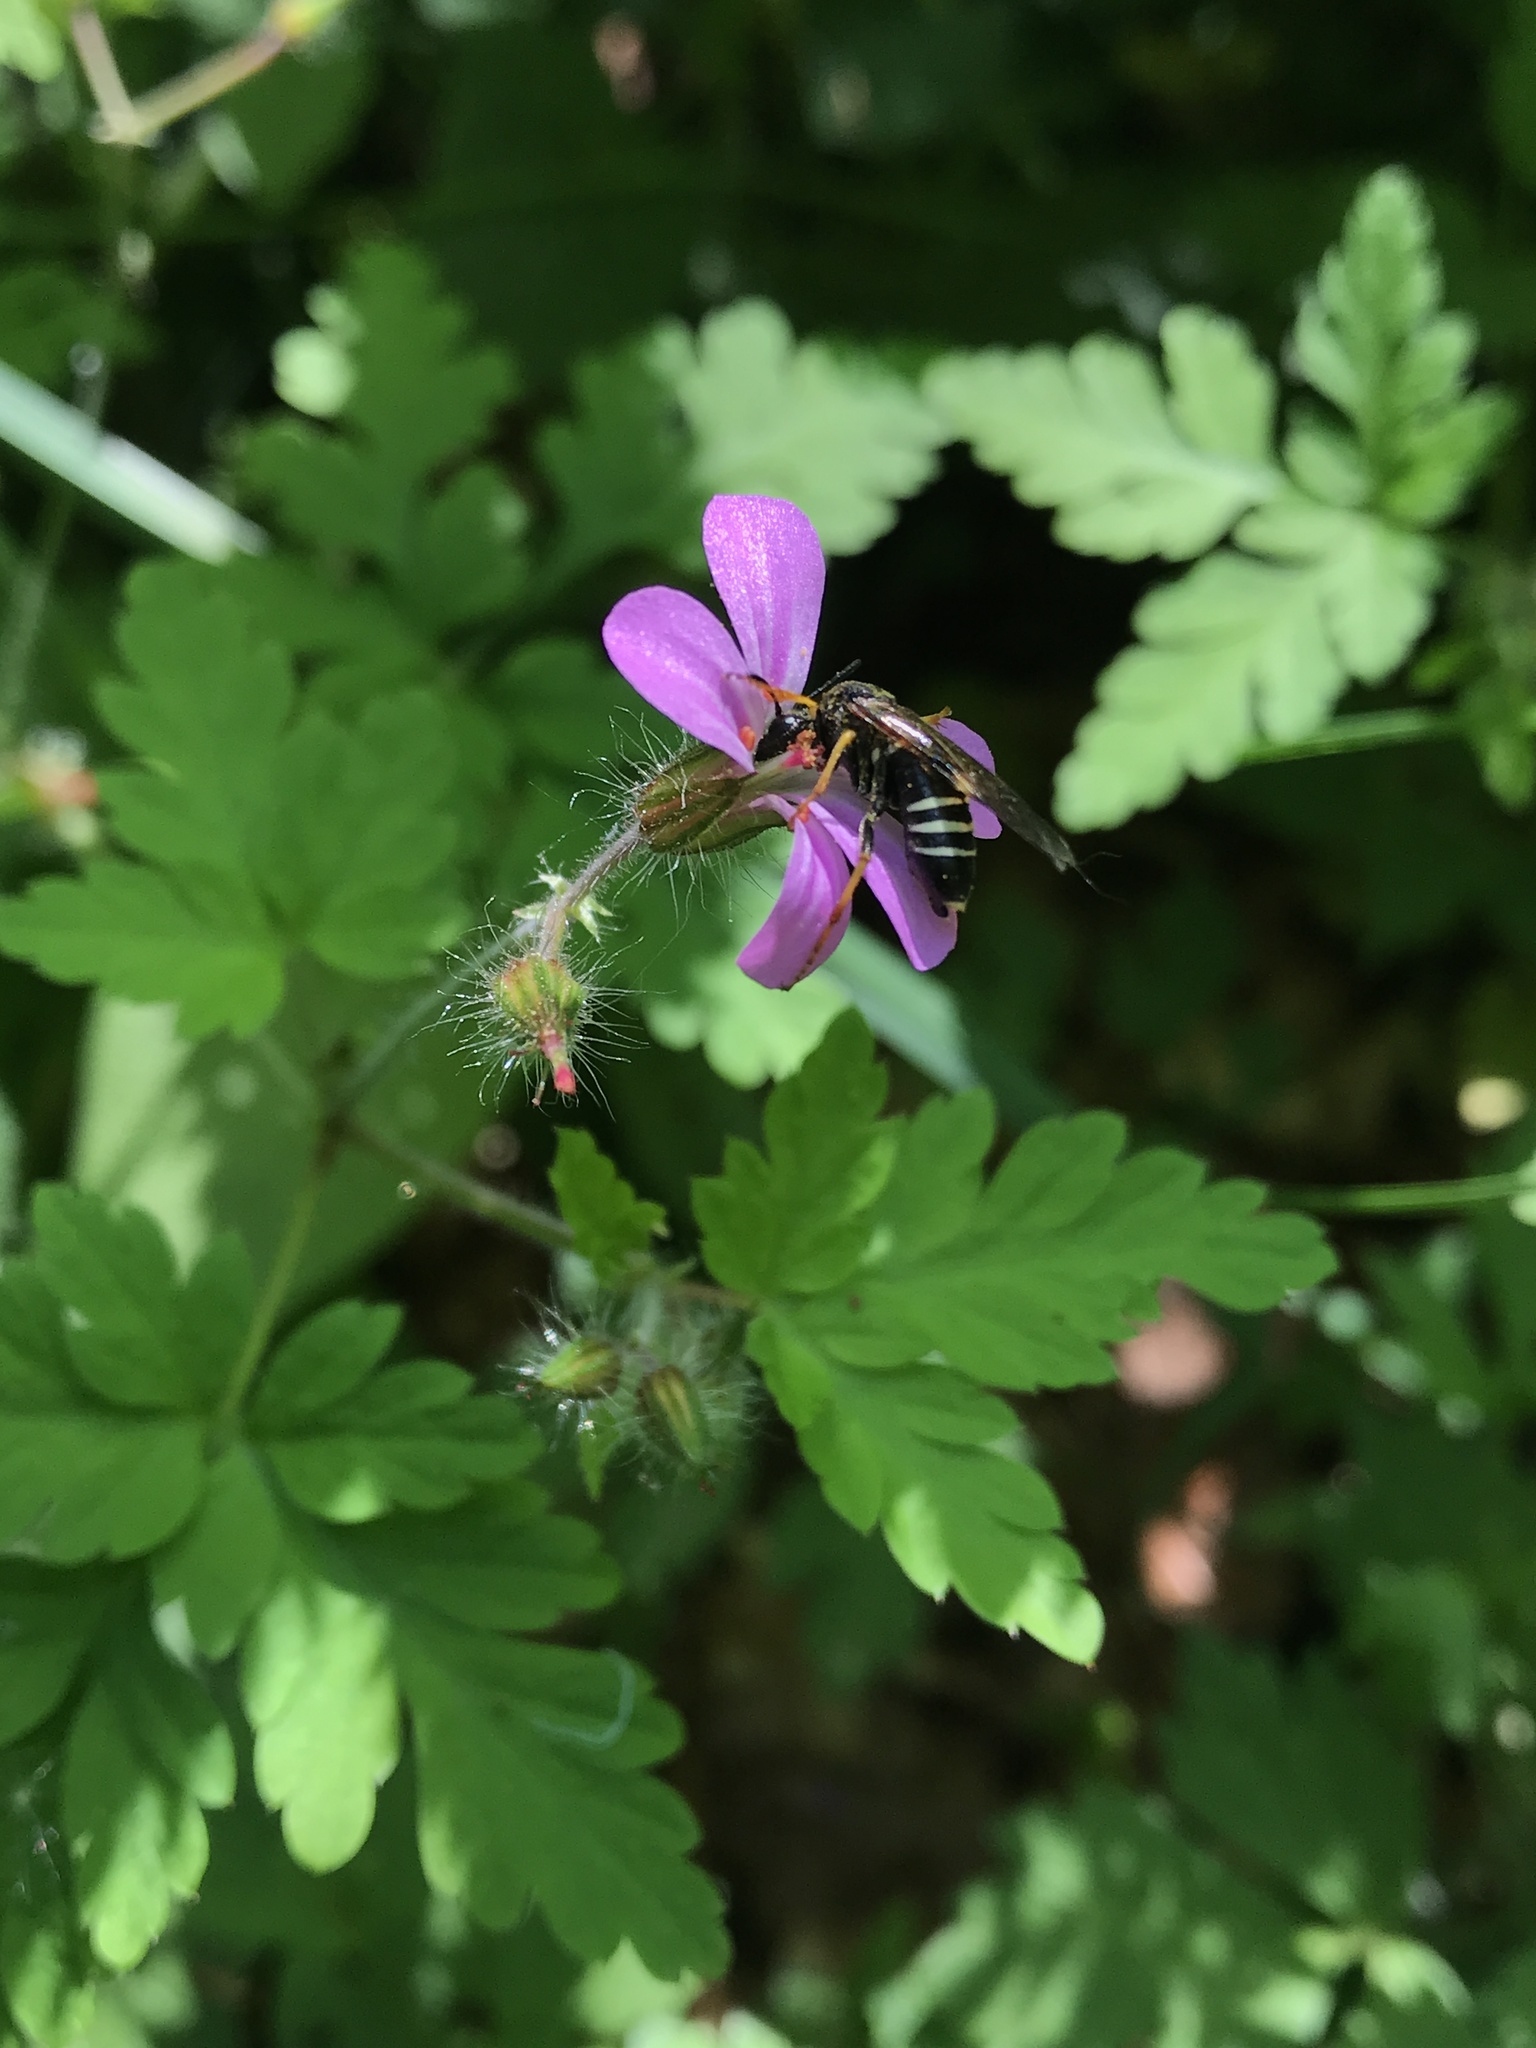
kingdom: Animalia
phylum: Arthropoda
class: Insecta
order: Hymenoptera
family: Tenthredinidae
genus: Tenthredo
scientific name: Tenthredo koehleri
